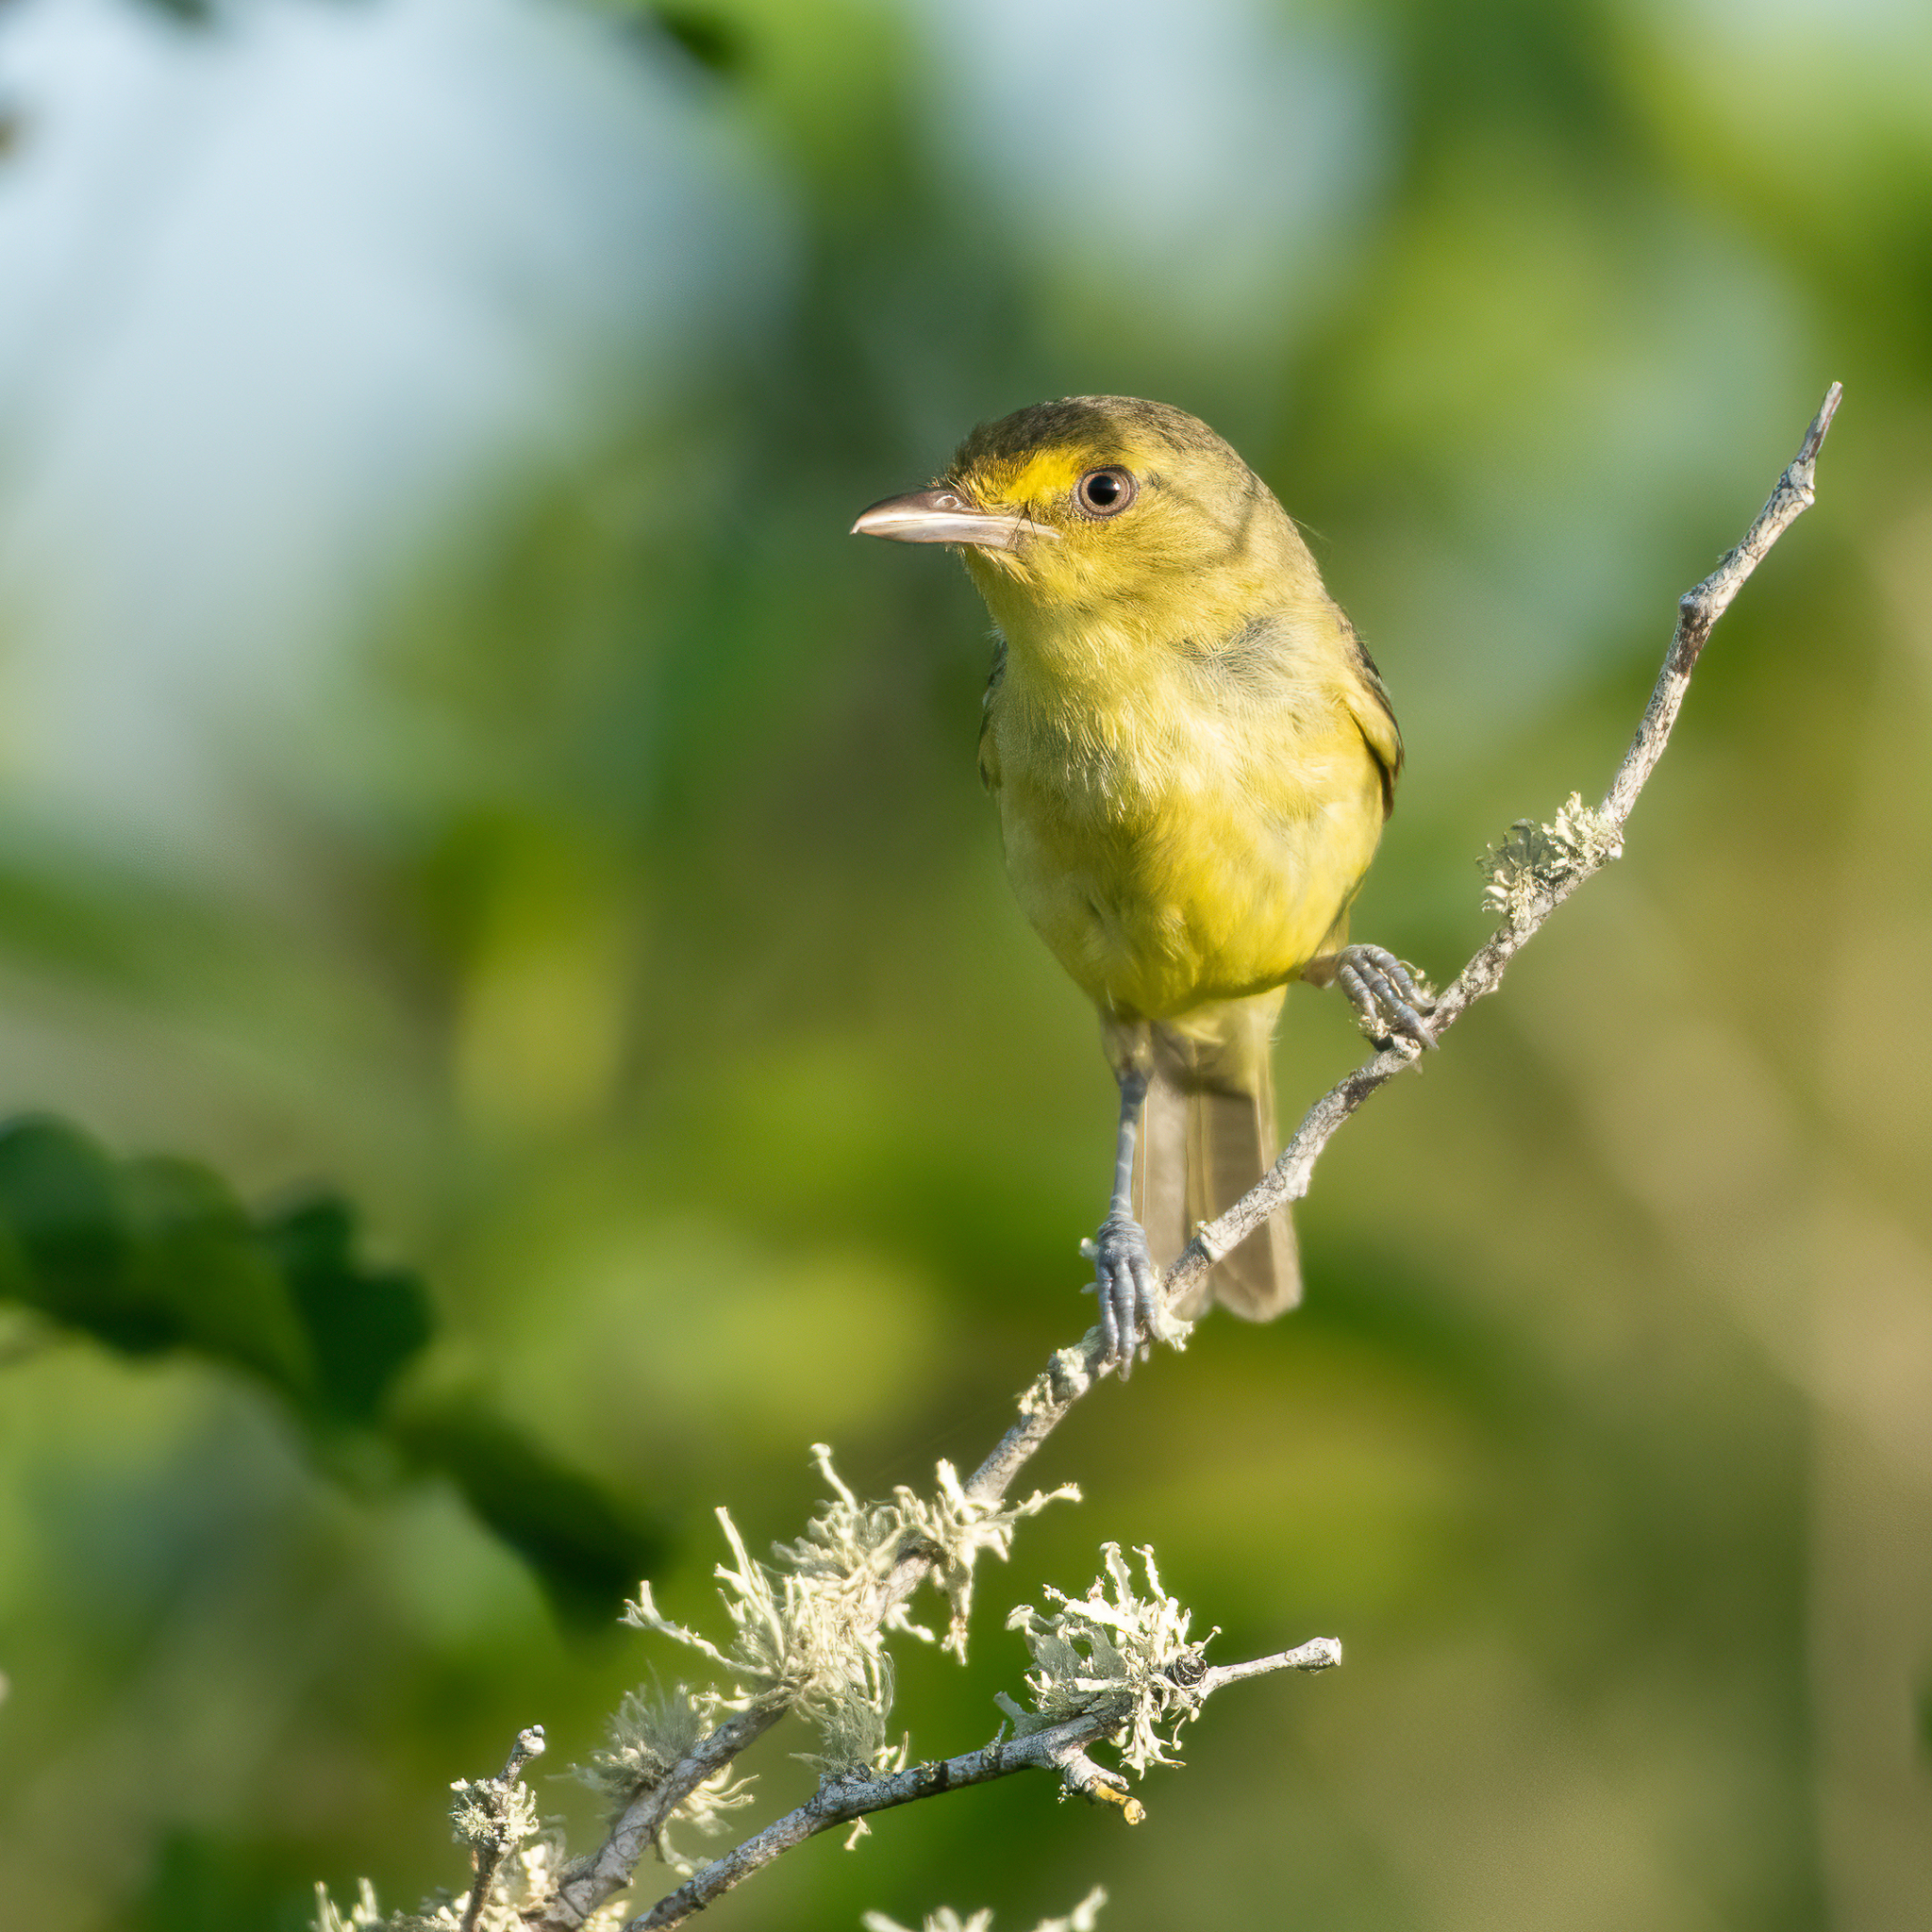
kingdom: Animalia
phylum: Chordata
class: Aves
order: Passeriformes
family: Vireonidae
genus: Vireo
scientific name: Vireo pallens
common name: Mangrove vireo
